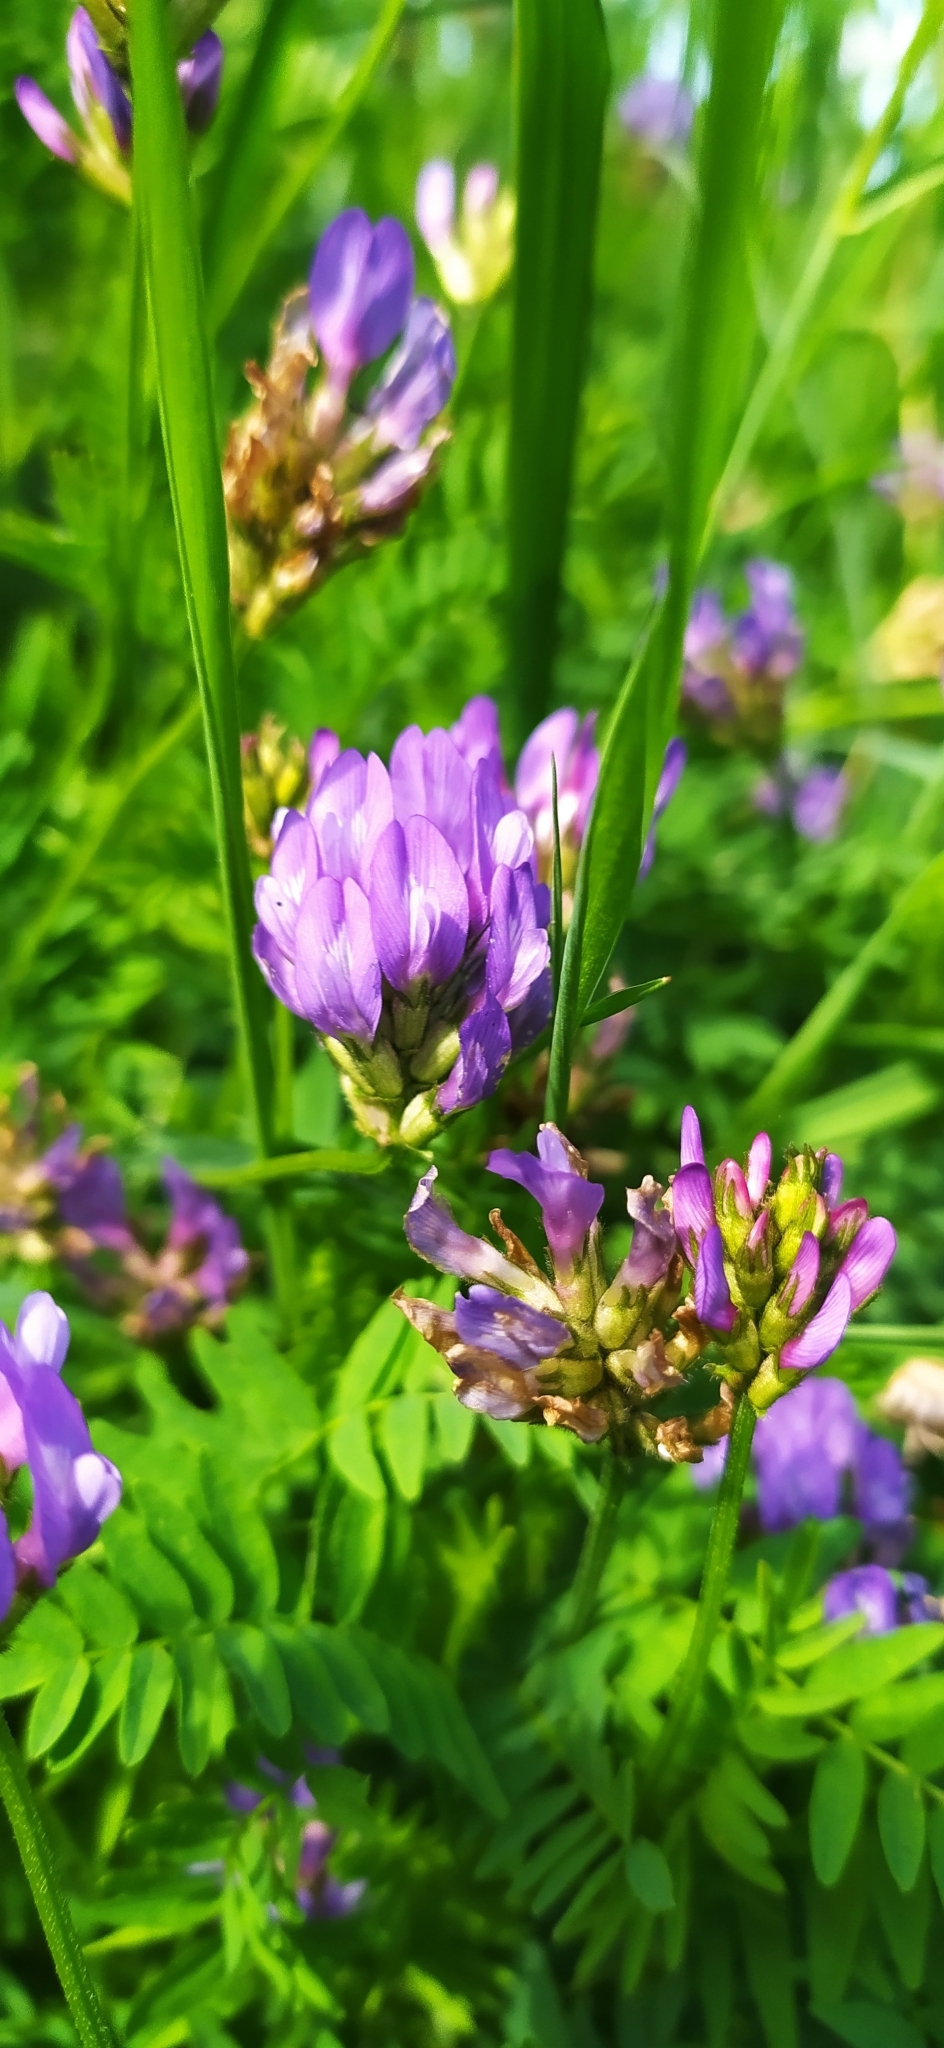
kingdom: Plantae
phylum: Tracheophyta
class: Magnoliopsida
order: Fabales
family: Fabaceae
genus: Astragalus
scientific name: Astragalus danicus
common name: Purple milk-vetch
